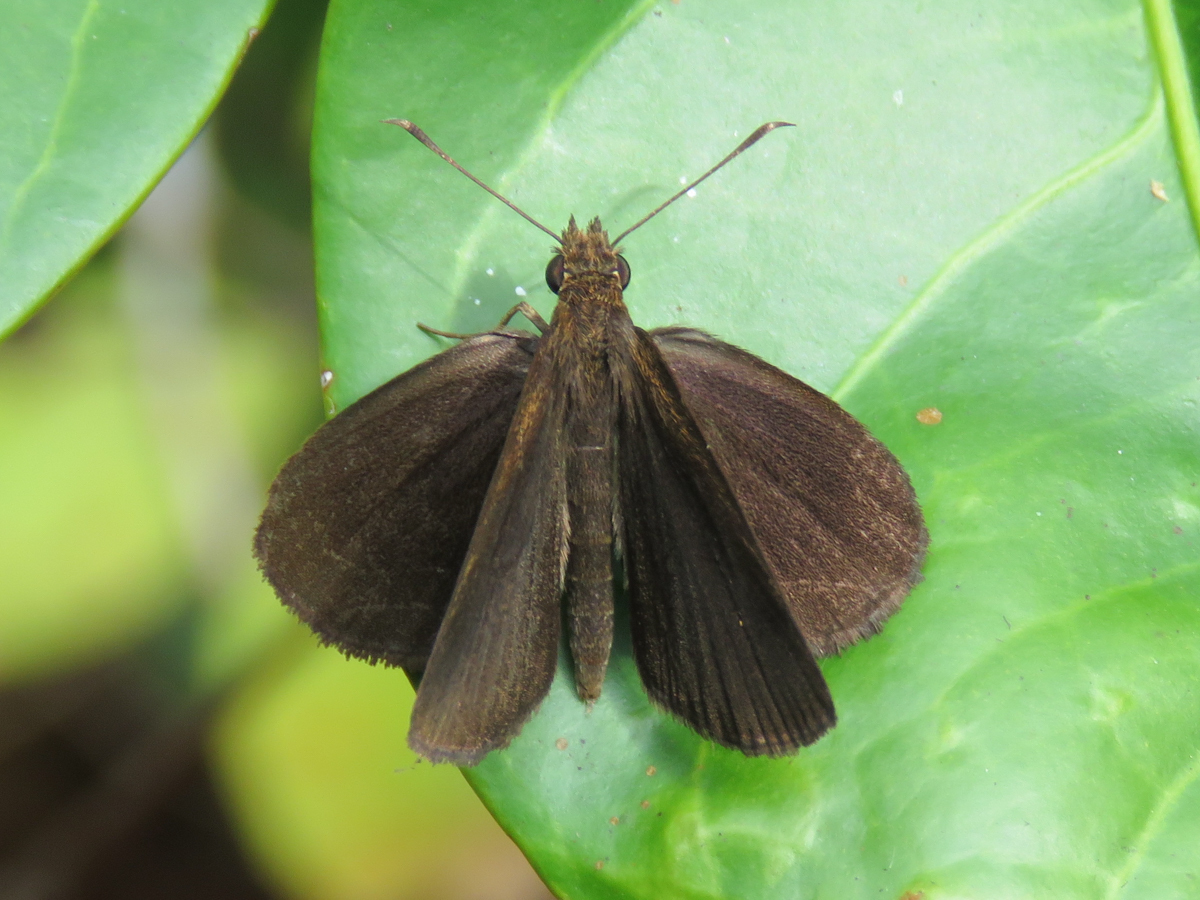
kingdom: Animalia
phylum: Arthropoda
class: Insecta
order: Lepidoptera
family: Hesperiidae
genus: Astictopterus
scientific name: Astictopterus jama
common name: Forest hopper
